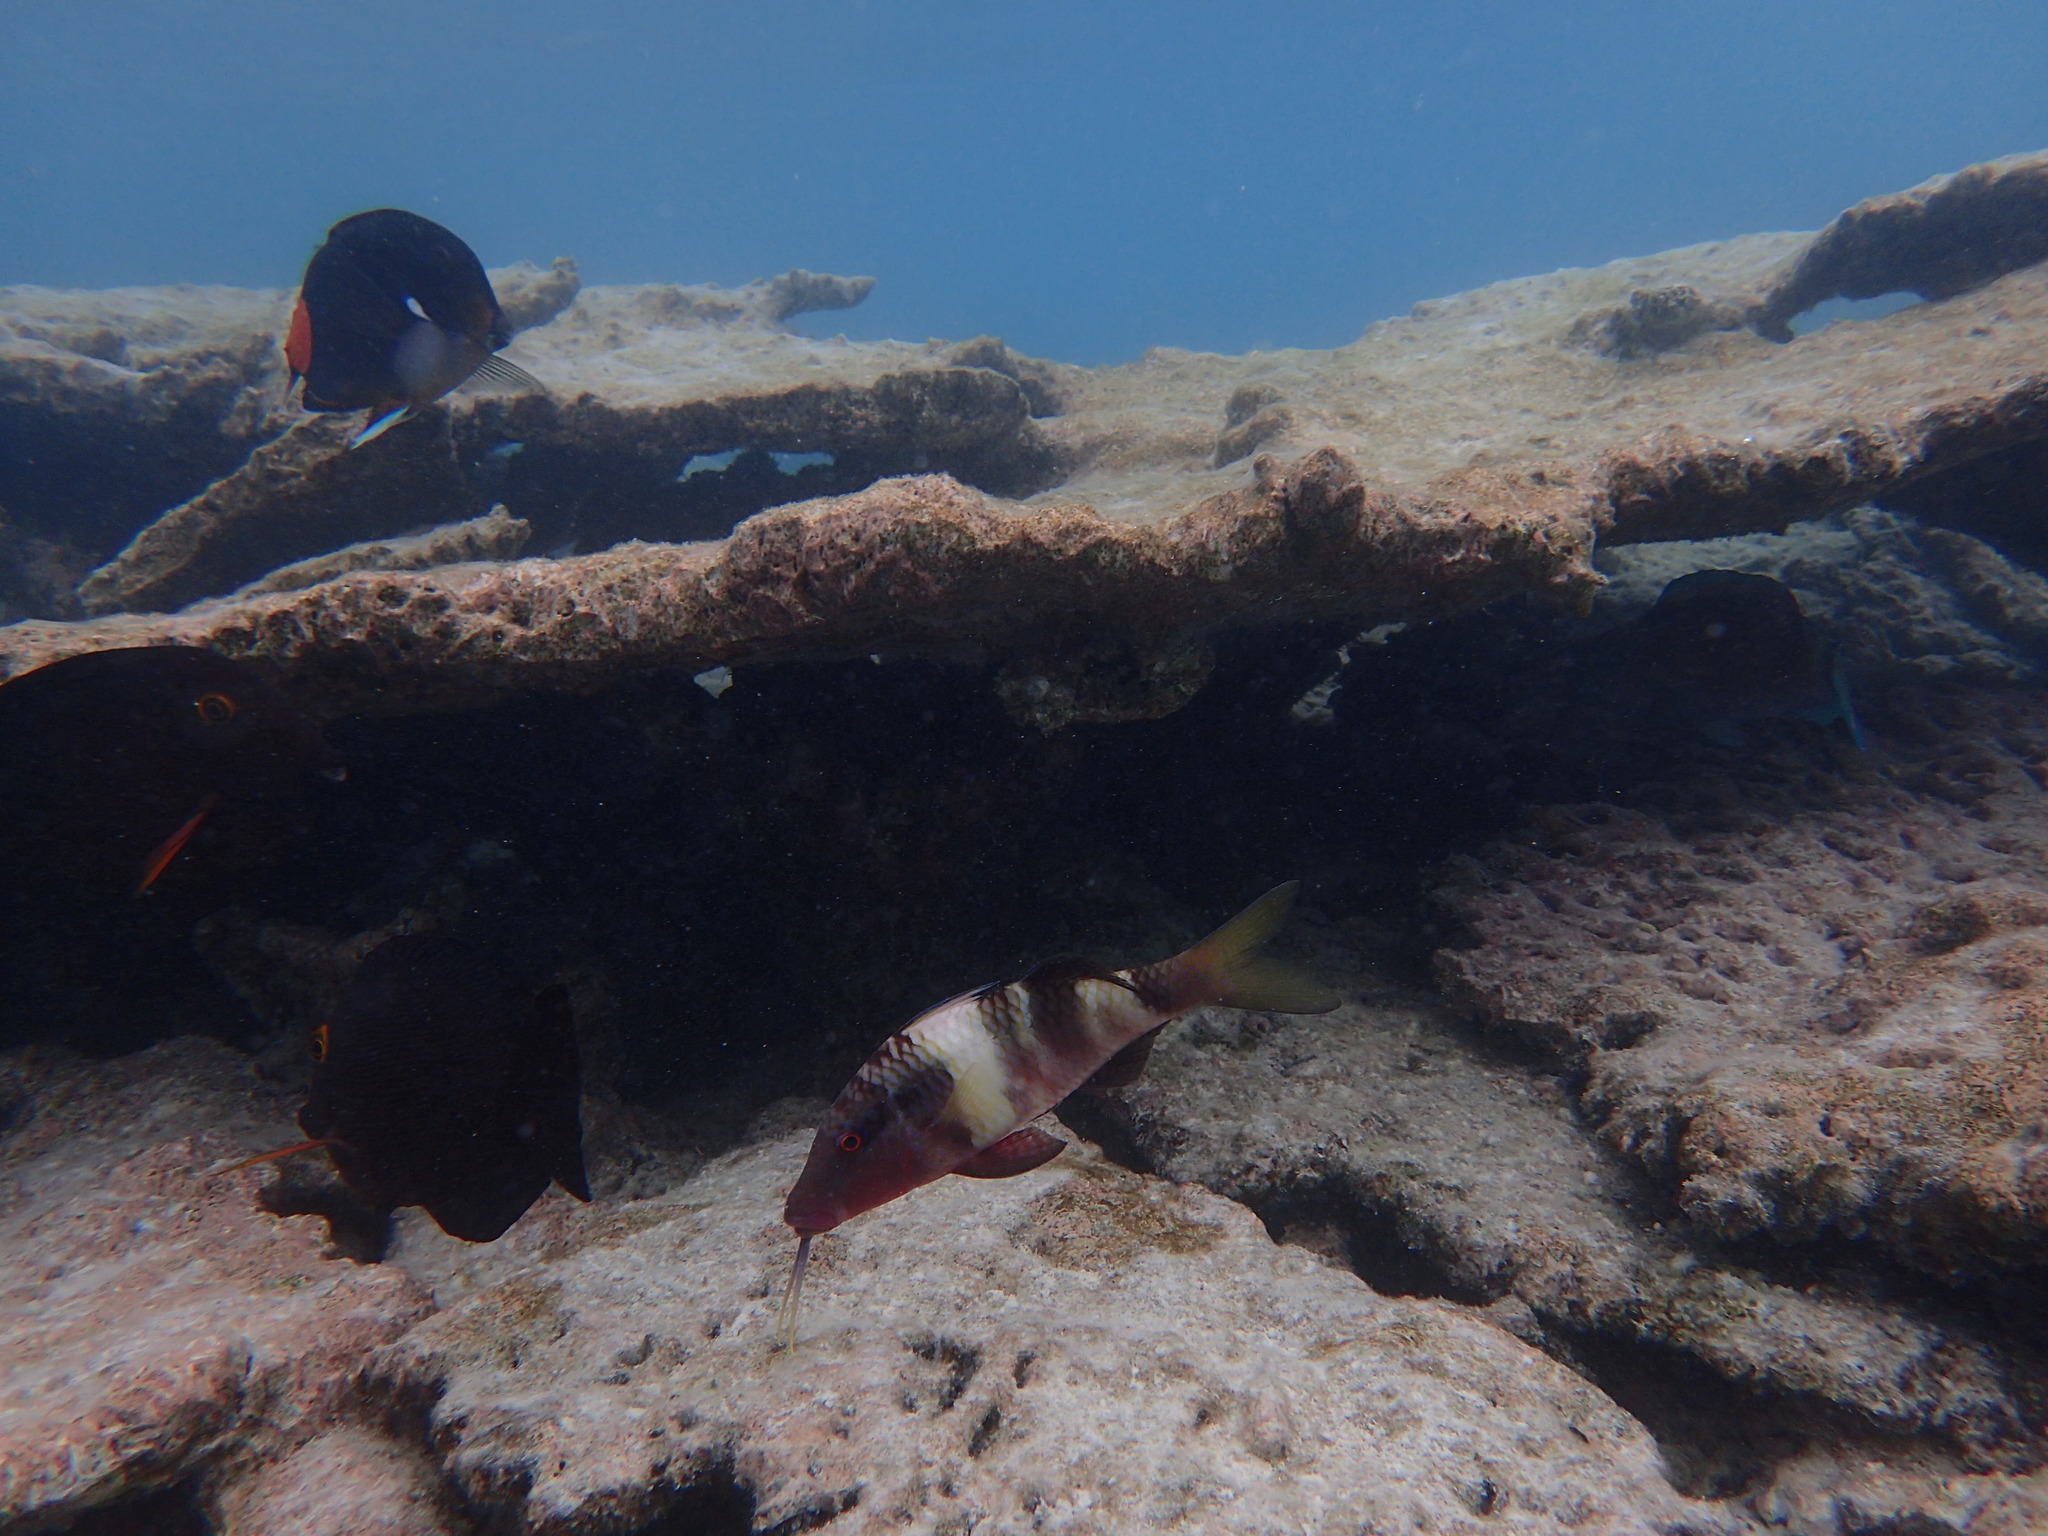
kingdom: Animalia
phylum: Chordata
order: Perciformes
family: Mullidae
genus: Parupeneus
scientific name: Parupeneus multifasciatus
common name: Manybar goatfish
